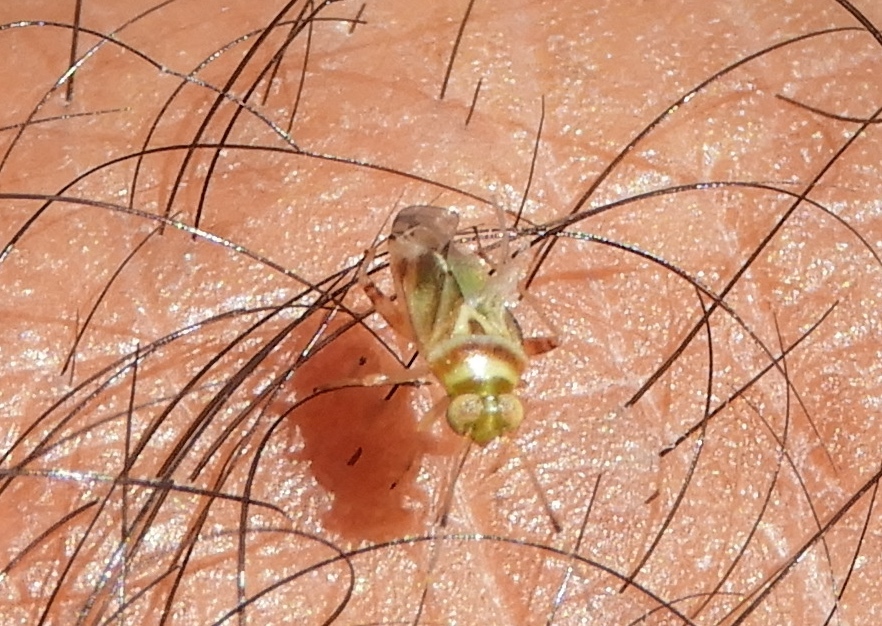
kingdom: Animalia
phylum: Arthropoda
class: Insecta
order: Hemiptera
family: Miridae
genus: Dagbertus
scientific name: Dagbertus
